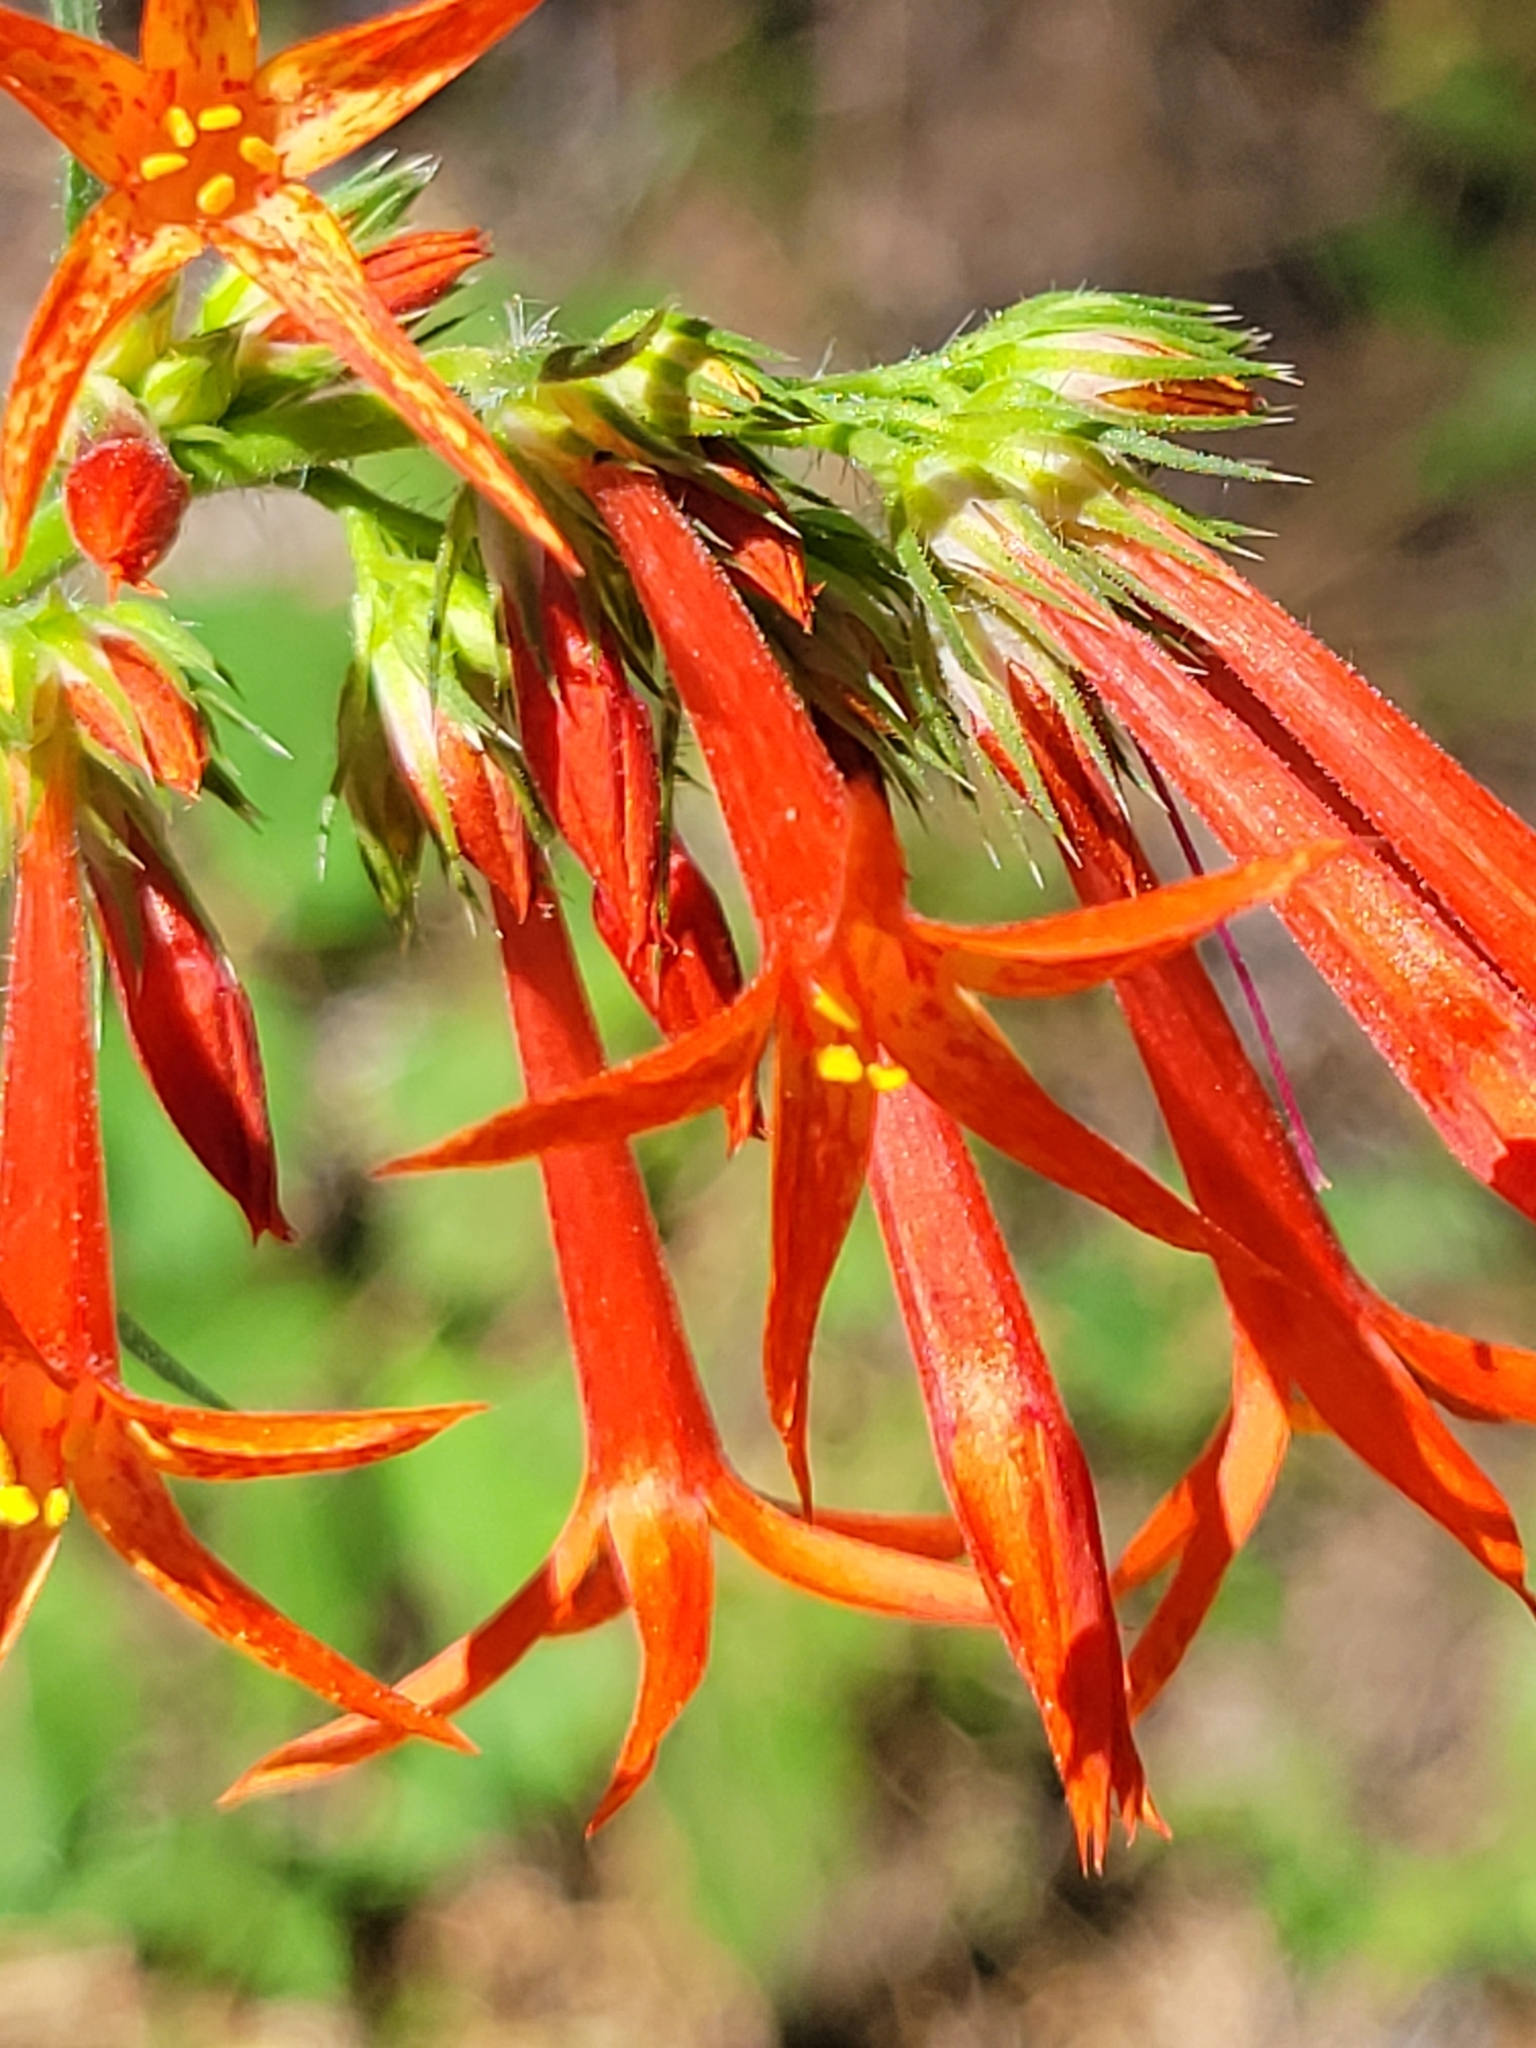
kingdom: Plantae
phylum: Tracheophyta
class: Magnoliopsida
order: Ericales
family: Polemoniaceae
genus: Ipomopsis
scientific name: Ipomopsis aggregata
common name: Scarlet gilia
